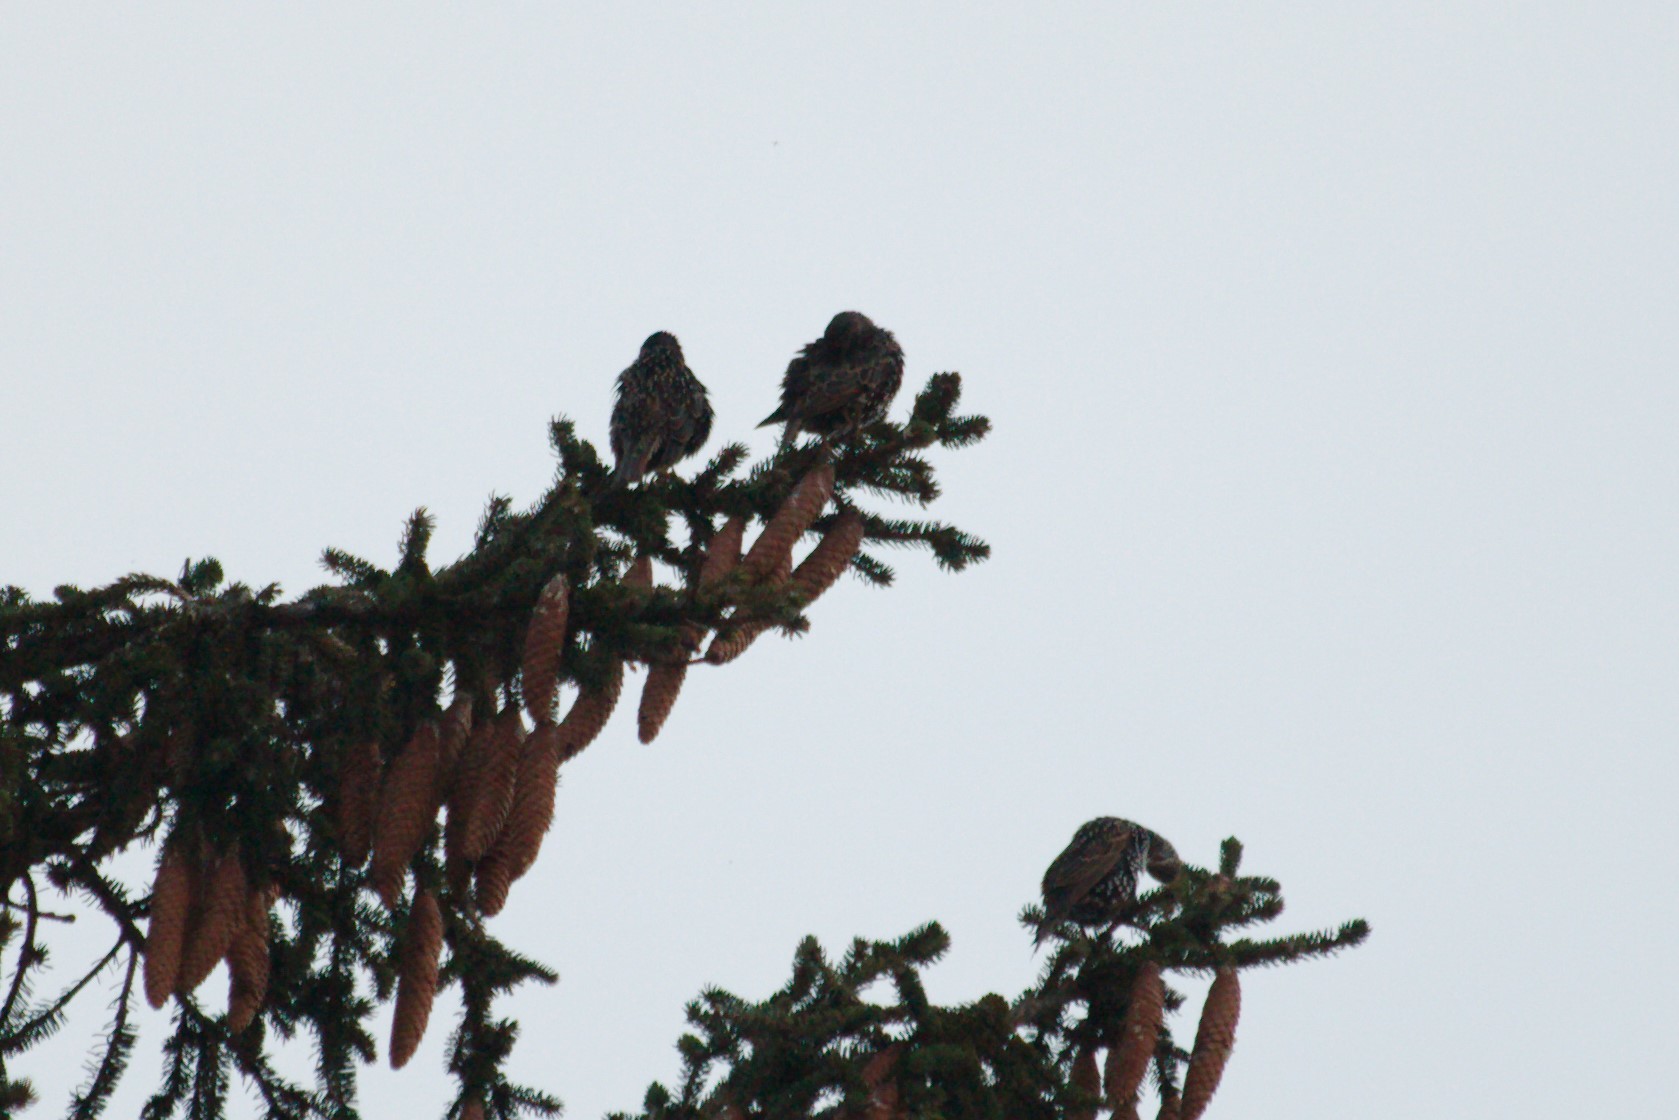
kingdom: Animalia
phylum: Chordata
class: Aves
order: Passeriformes
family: Sturnidae
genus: Sturnus
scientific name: Sturnus vulgaris
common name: Common starling
